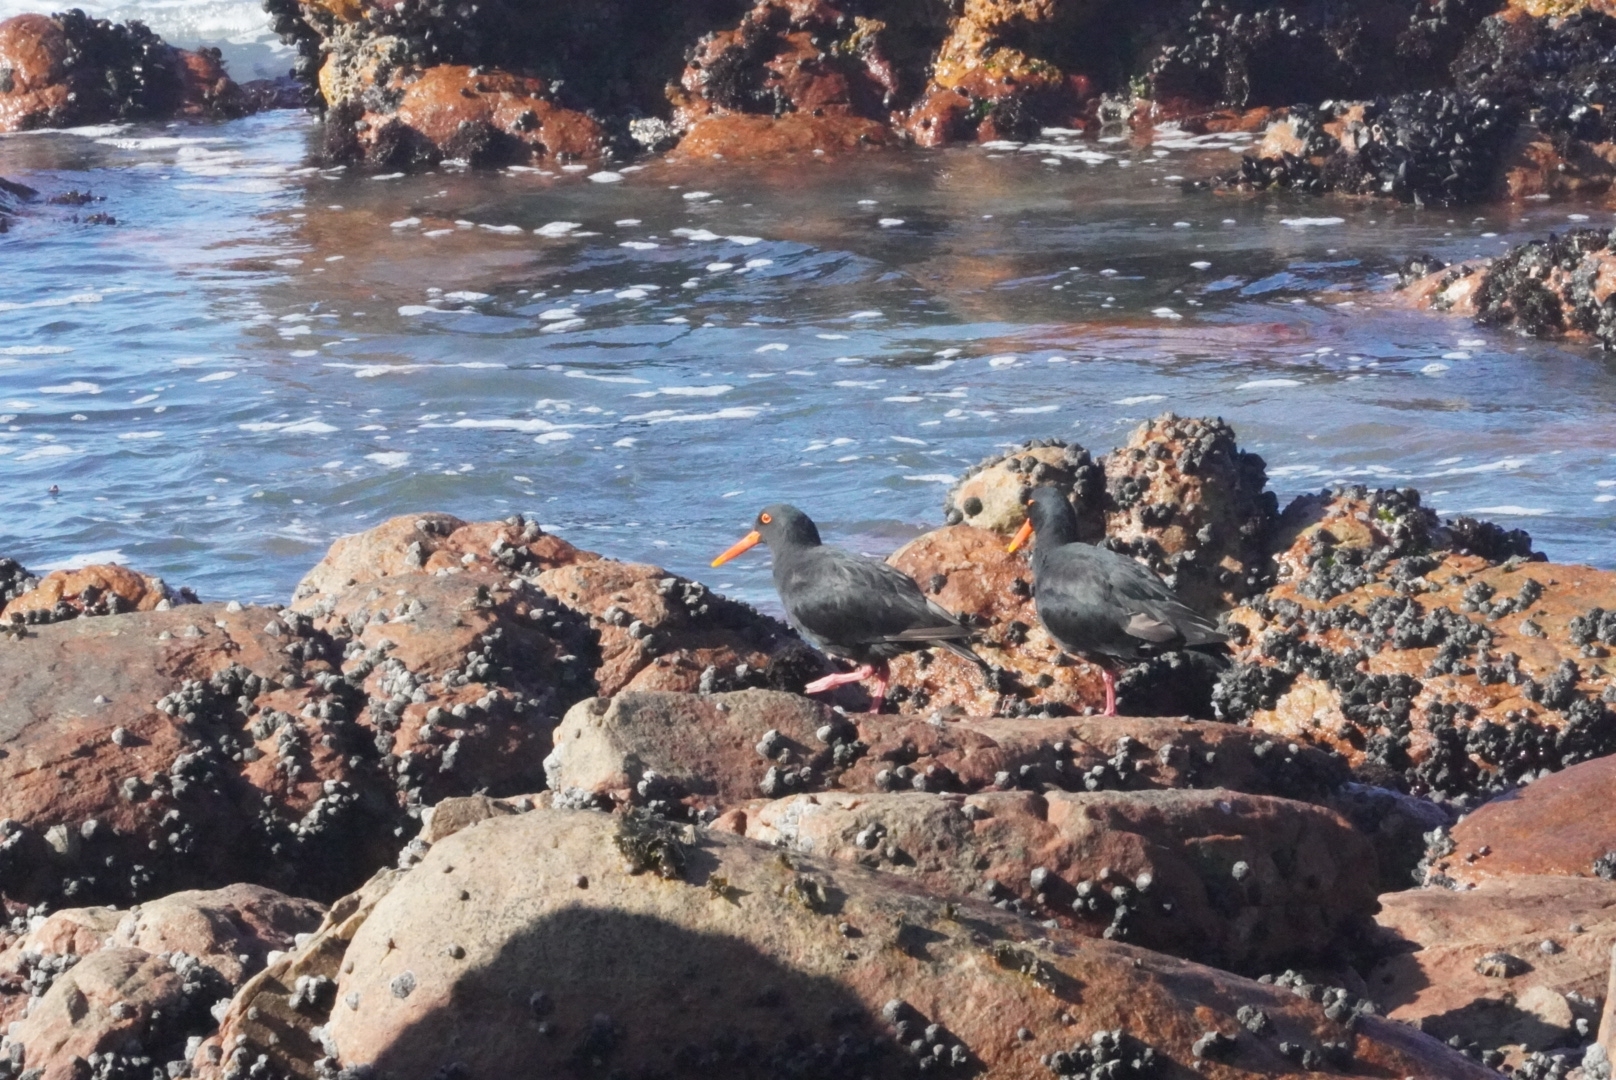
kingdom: Animalia
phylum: Chordata
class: Aves
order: Charadriiformes
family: Haematopodidae
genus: Haematopus
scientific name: Haematopus moquini
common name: African oystercatcher
